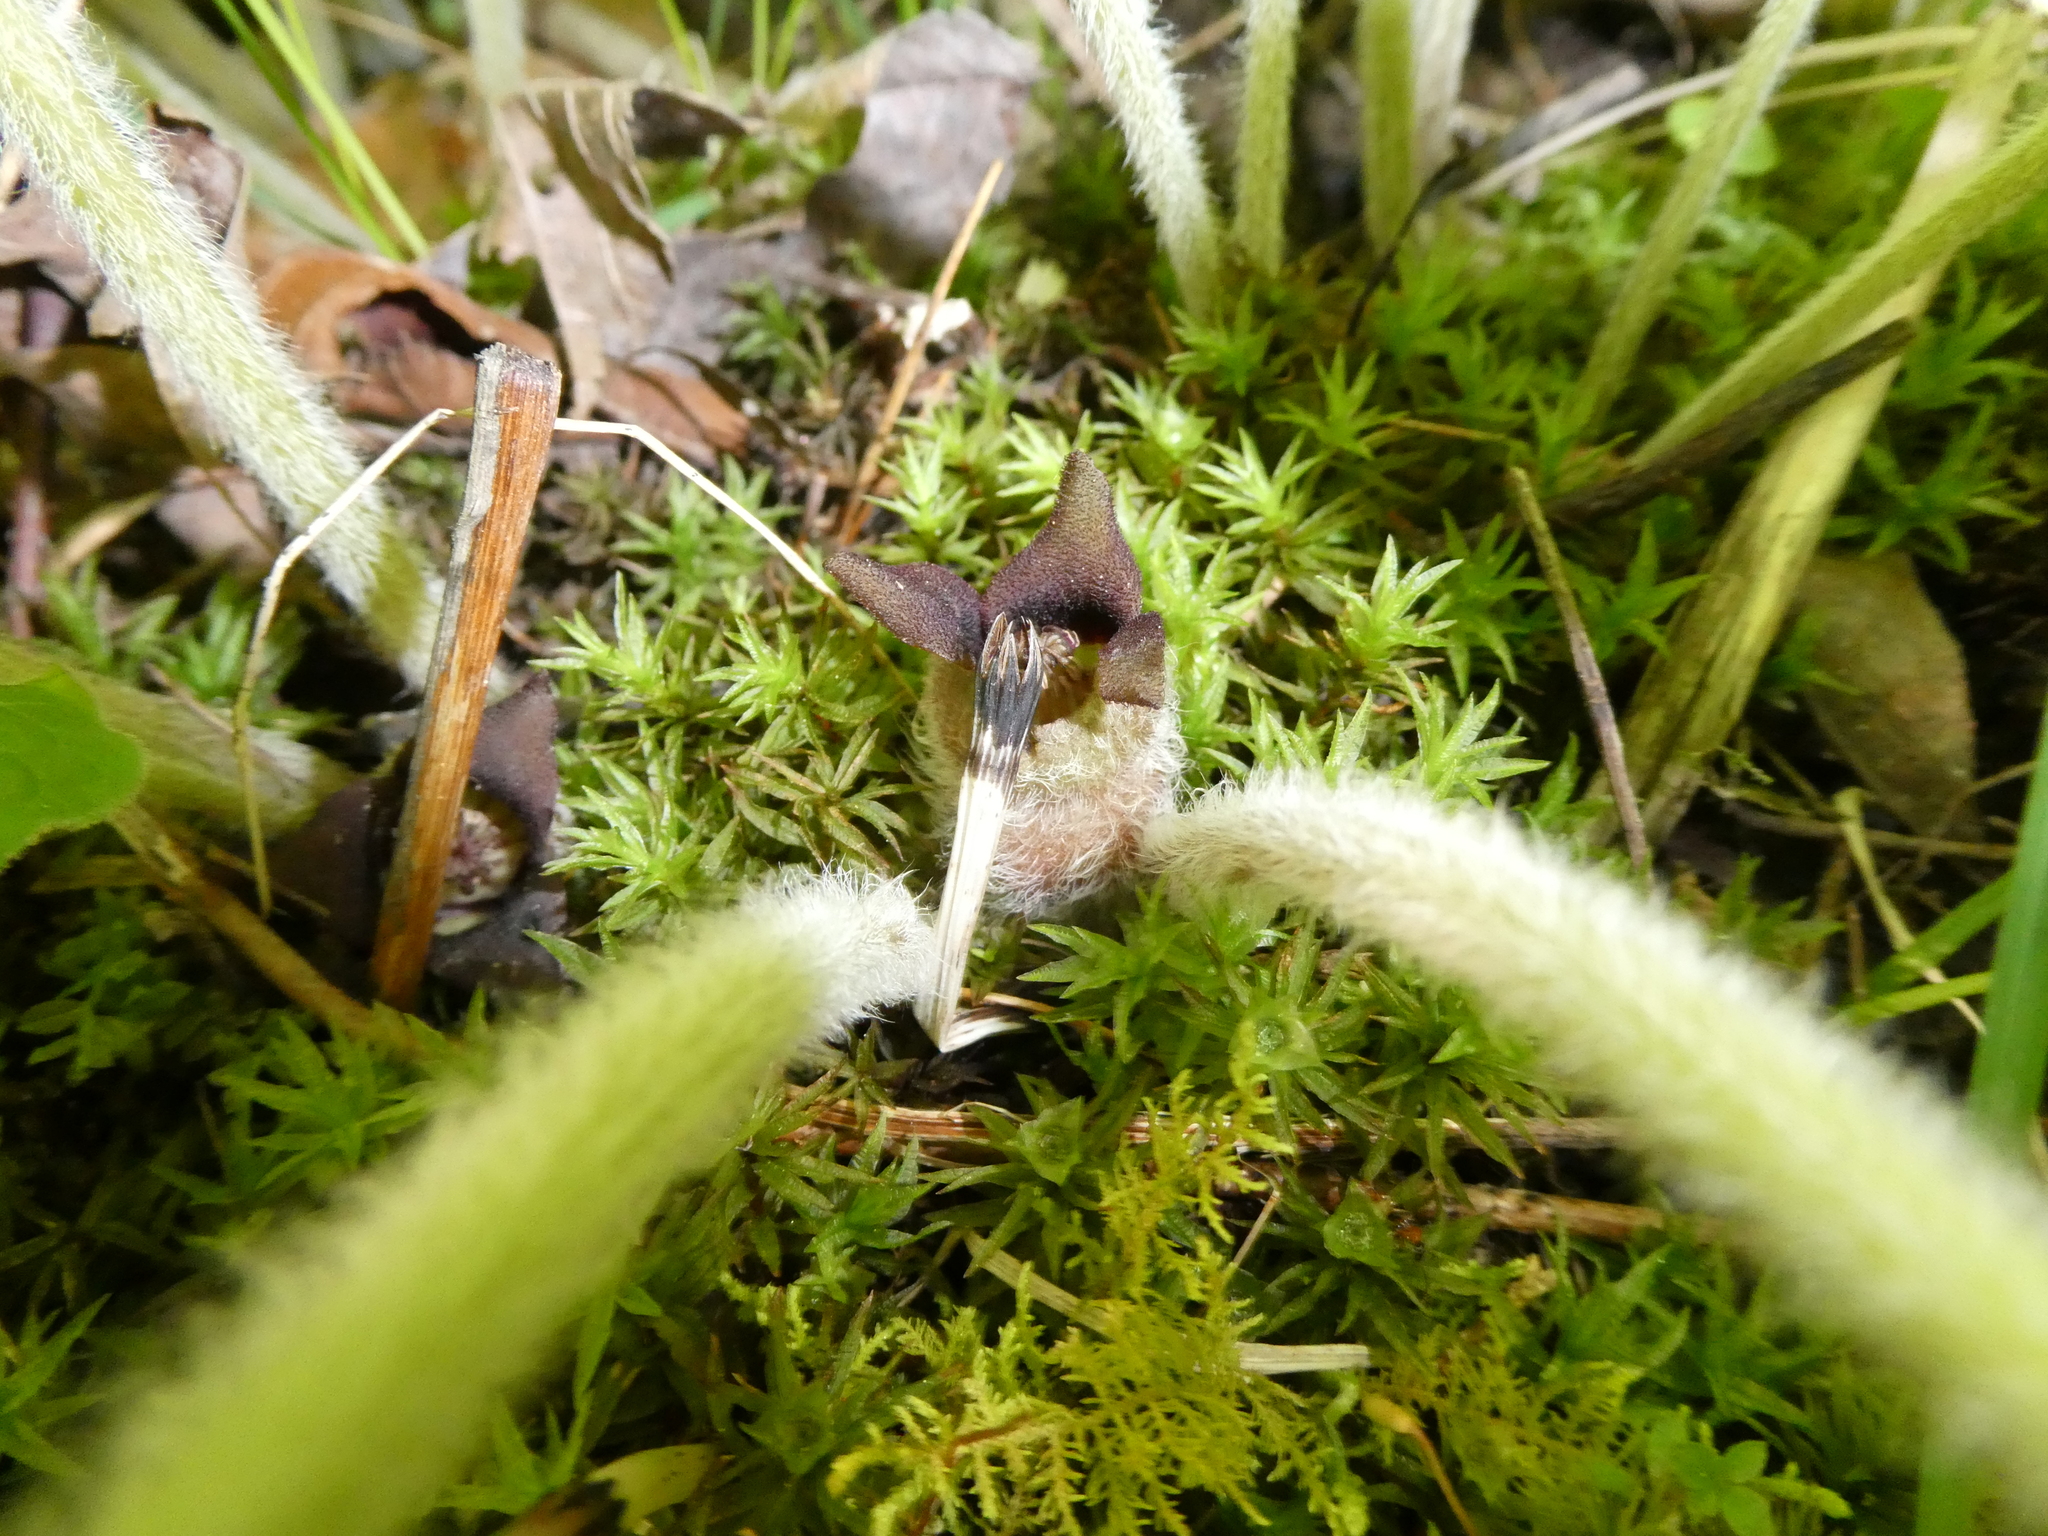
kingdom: Plantae
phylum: Tracheophyta
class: Magnoliopsida
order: Piperales
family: Aristolochiaceae
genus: Asarum
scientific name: Asarum canadense
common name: Wild ginger
